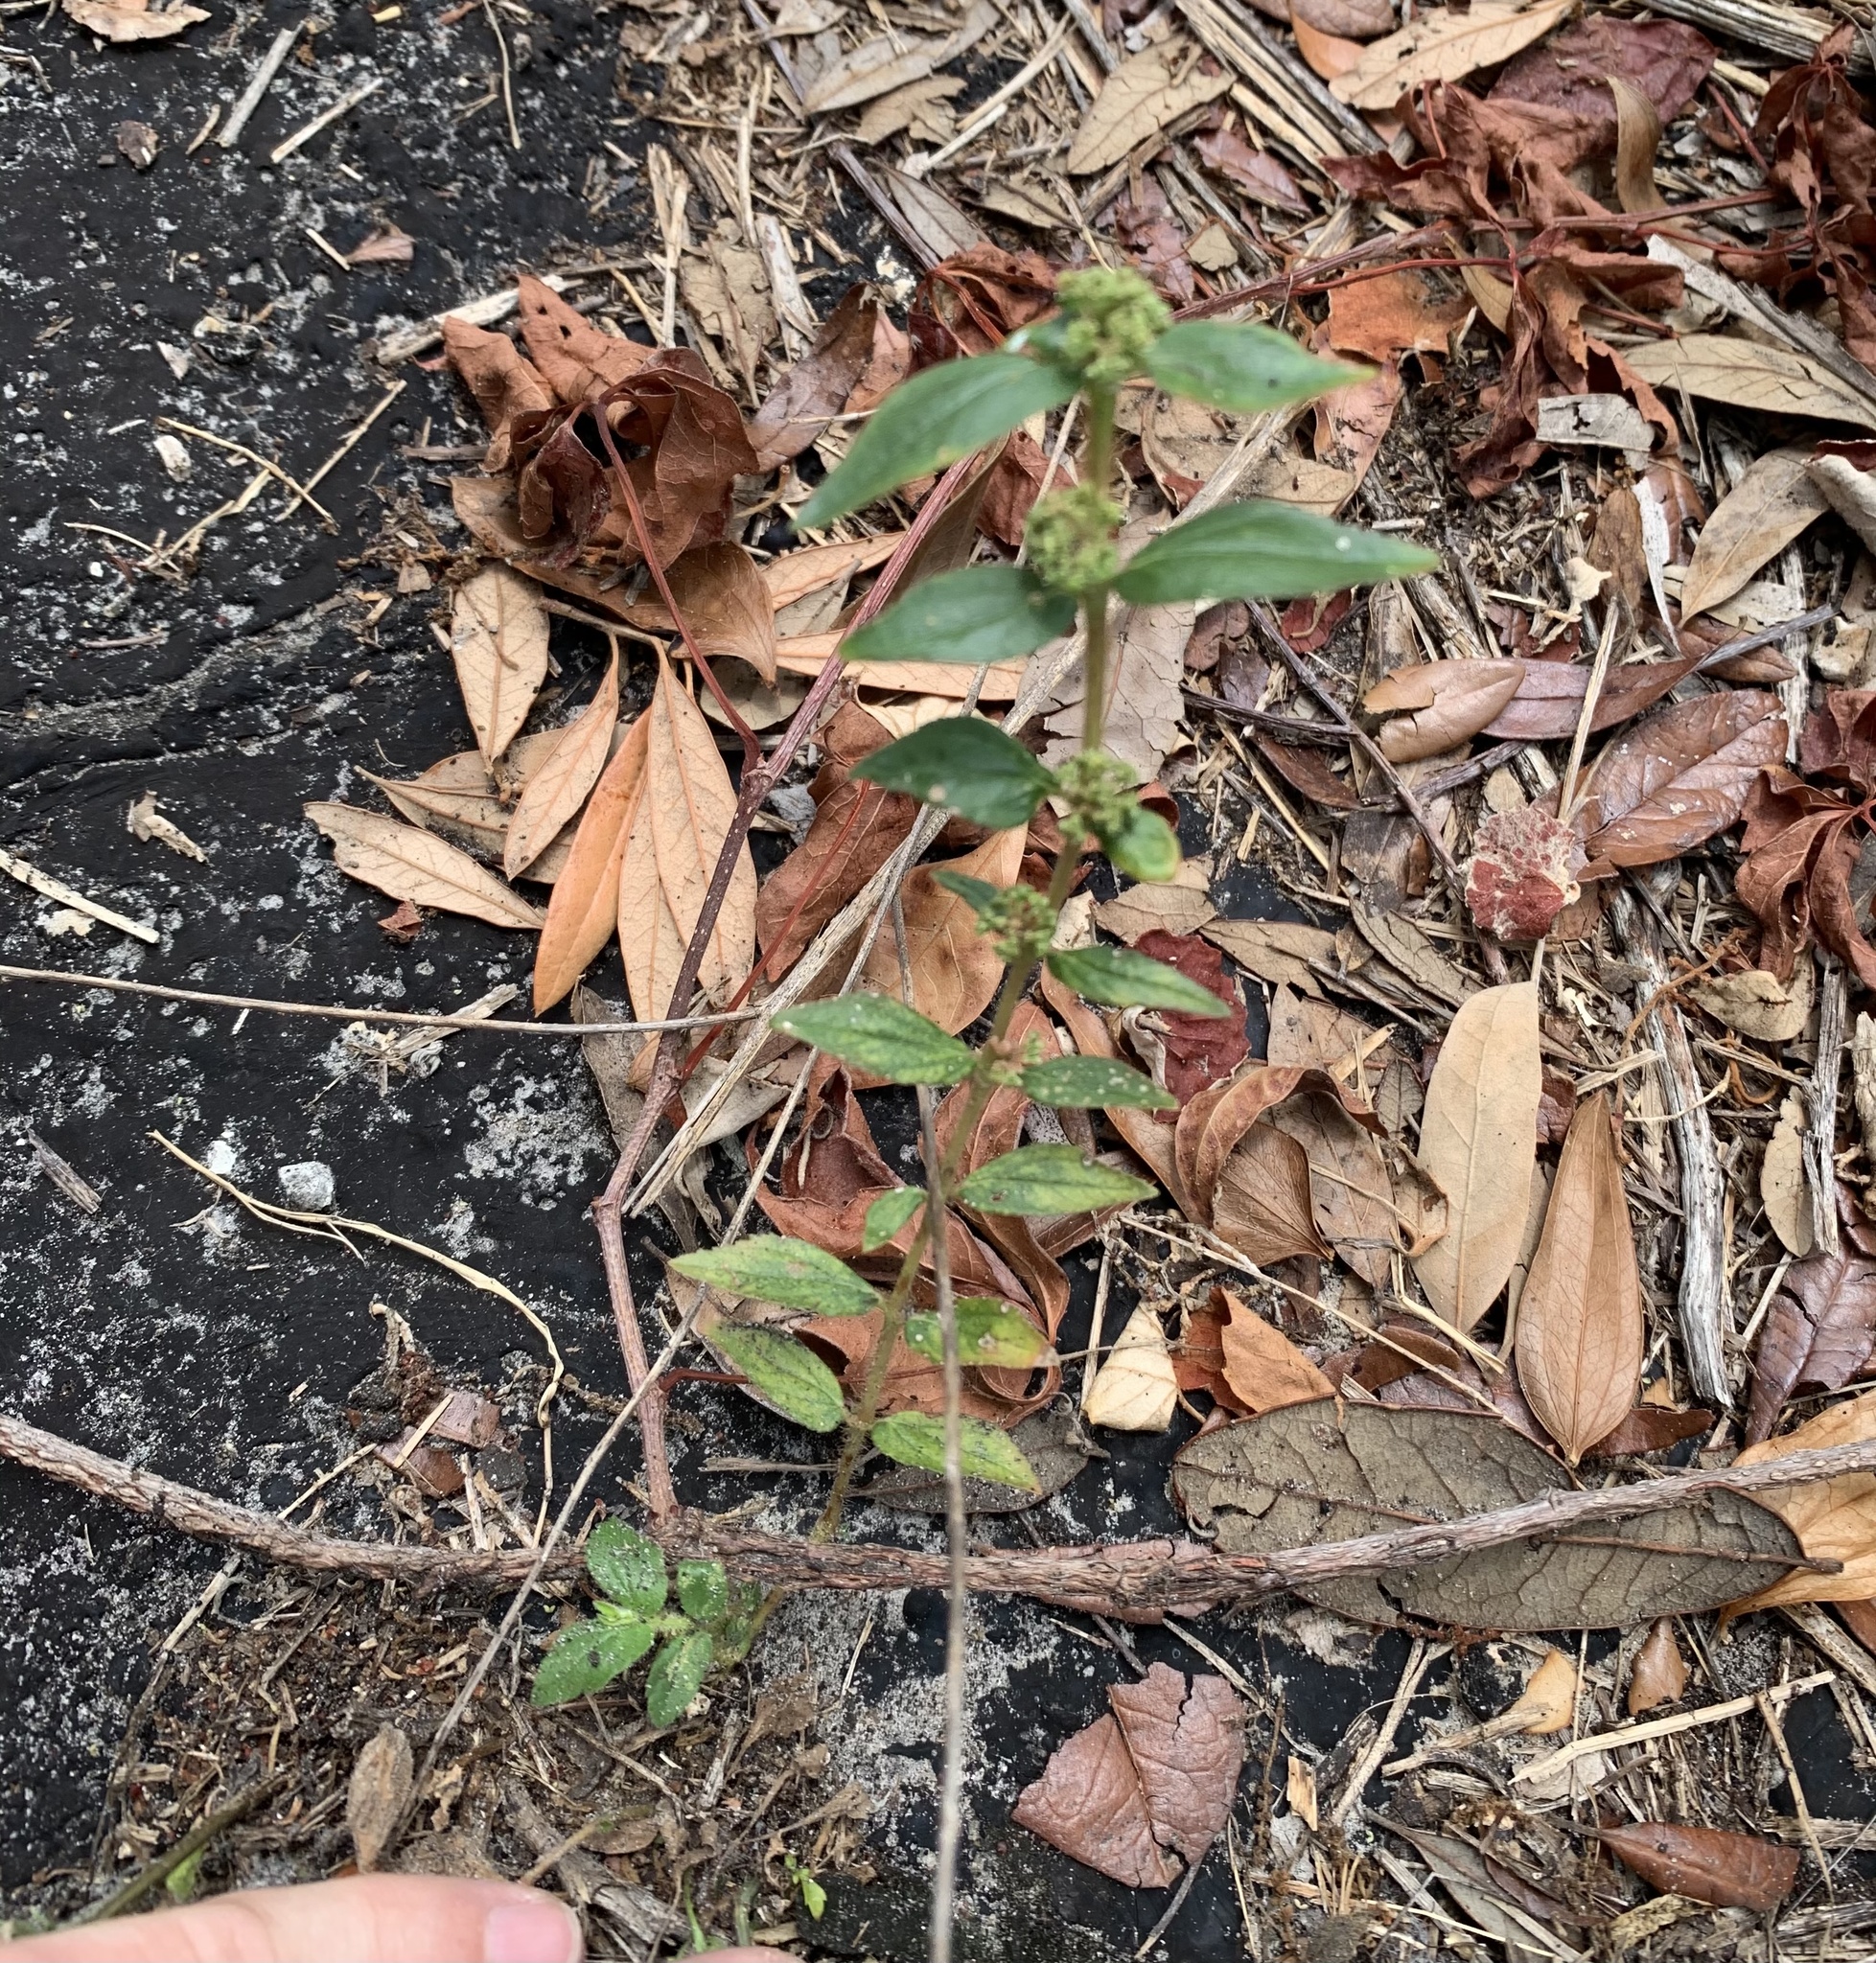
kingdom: Plantae
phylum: Tracheophyta
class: Magnoliopsida
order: Malpighiales
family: Euphorbiaceae
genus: Euphorbia
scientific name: Euphorbia hirta
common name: Pillpod sandmat
